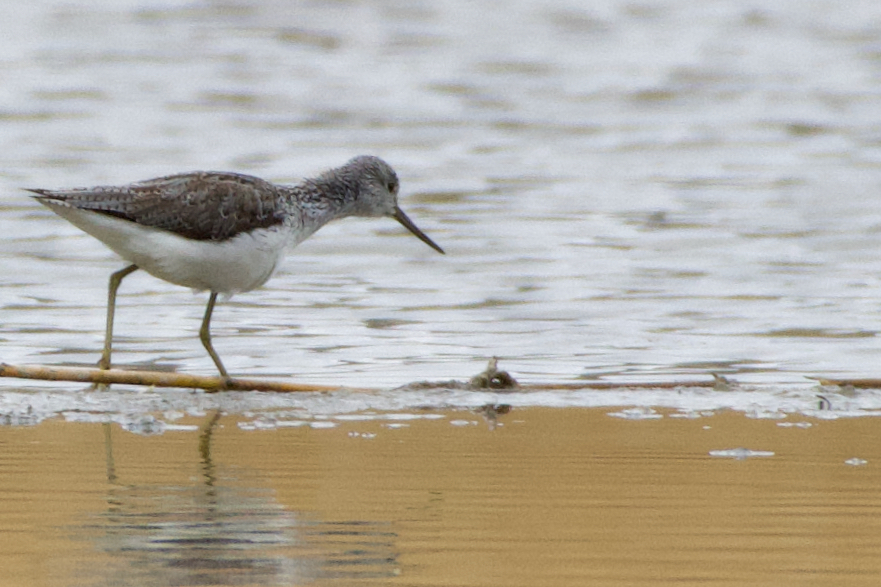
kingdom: Animalia
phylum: Chordata
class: Aves
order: Charadriiformes
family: Scolopacidae
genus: Tringa
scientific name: Tringa nebularia
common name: Common greenshank
